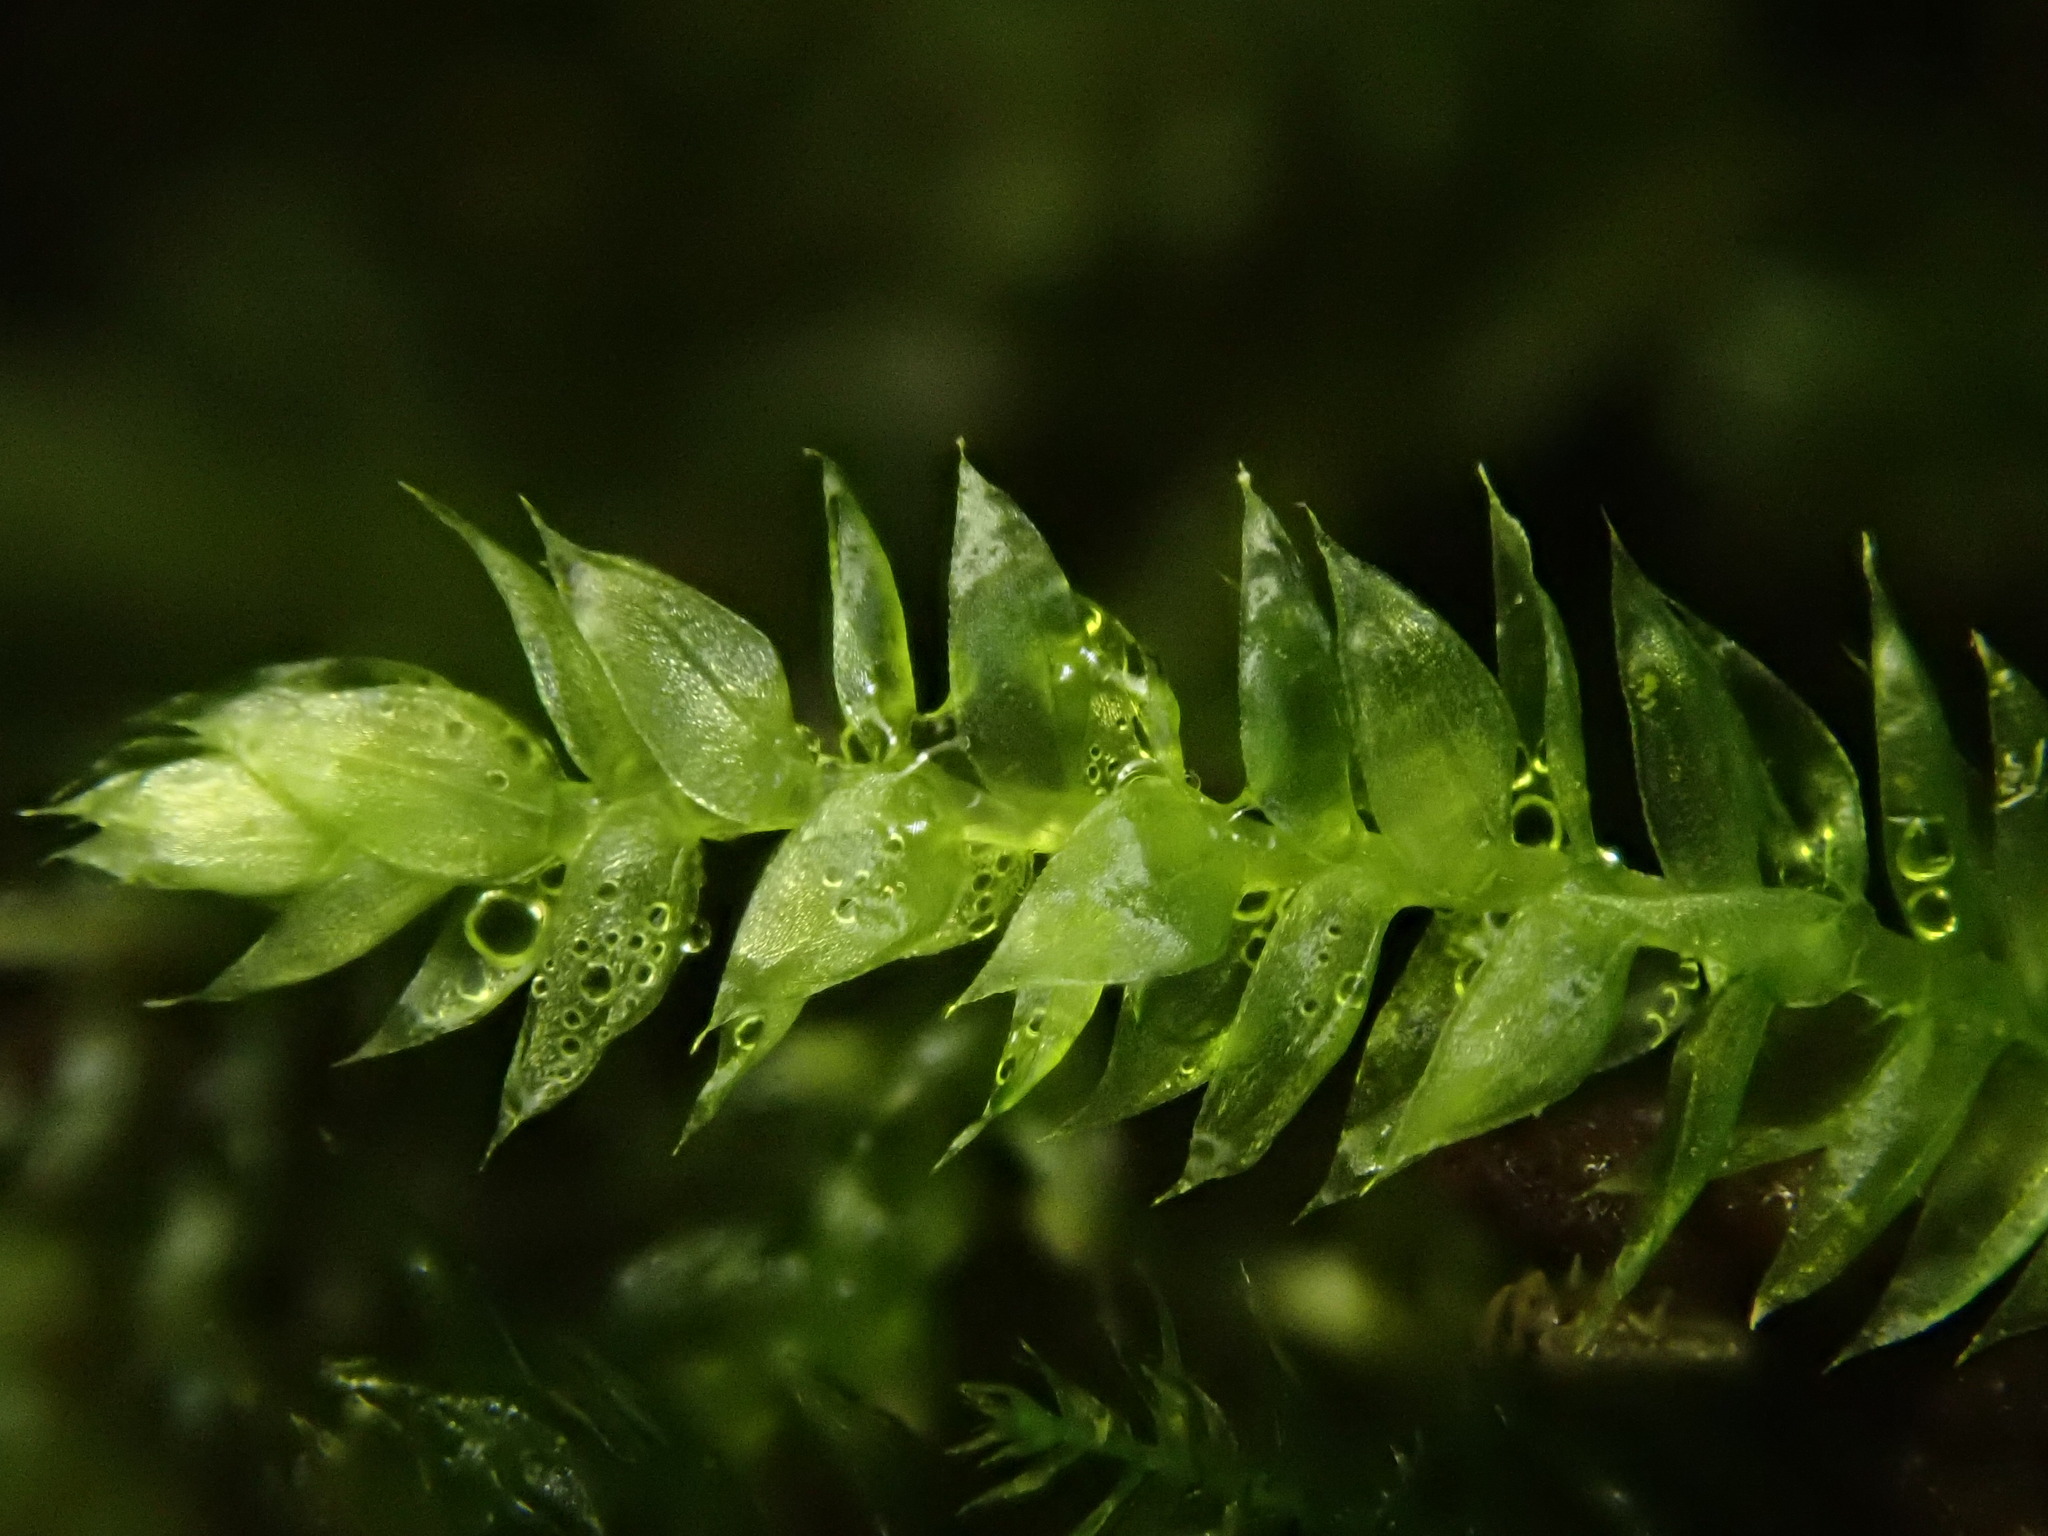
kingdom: Plantae
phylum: Bryophyta
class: Bryopsida
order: Hypnales
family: Brachytheciaceae
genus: Rhynchostegium
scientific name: Rhynchostegium confertum
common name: Clustered feather-moss
